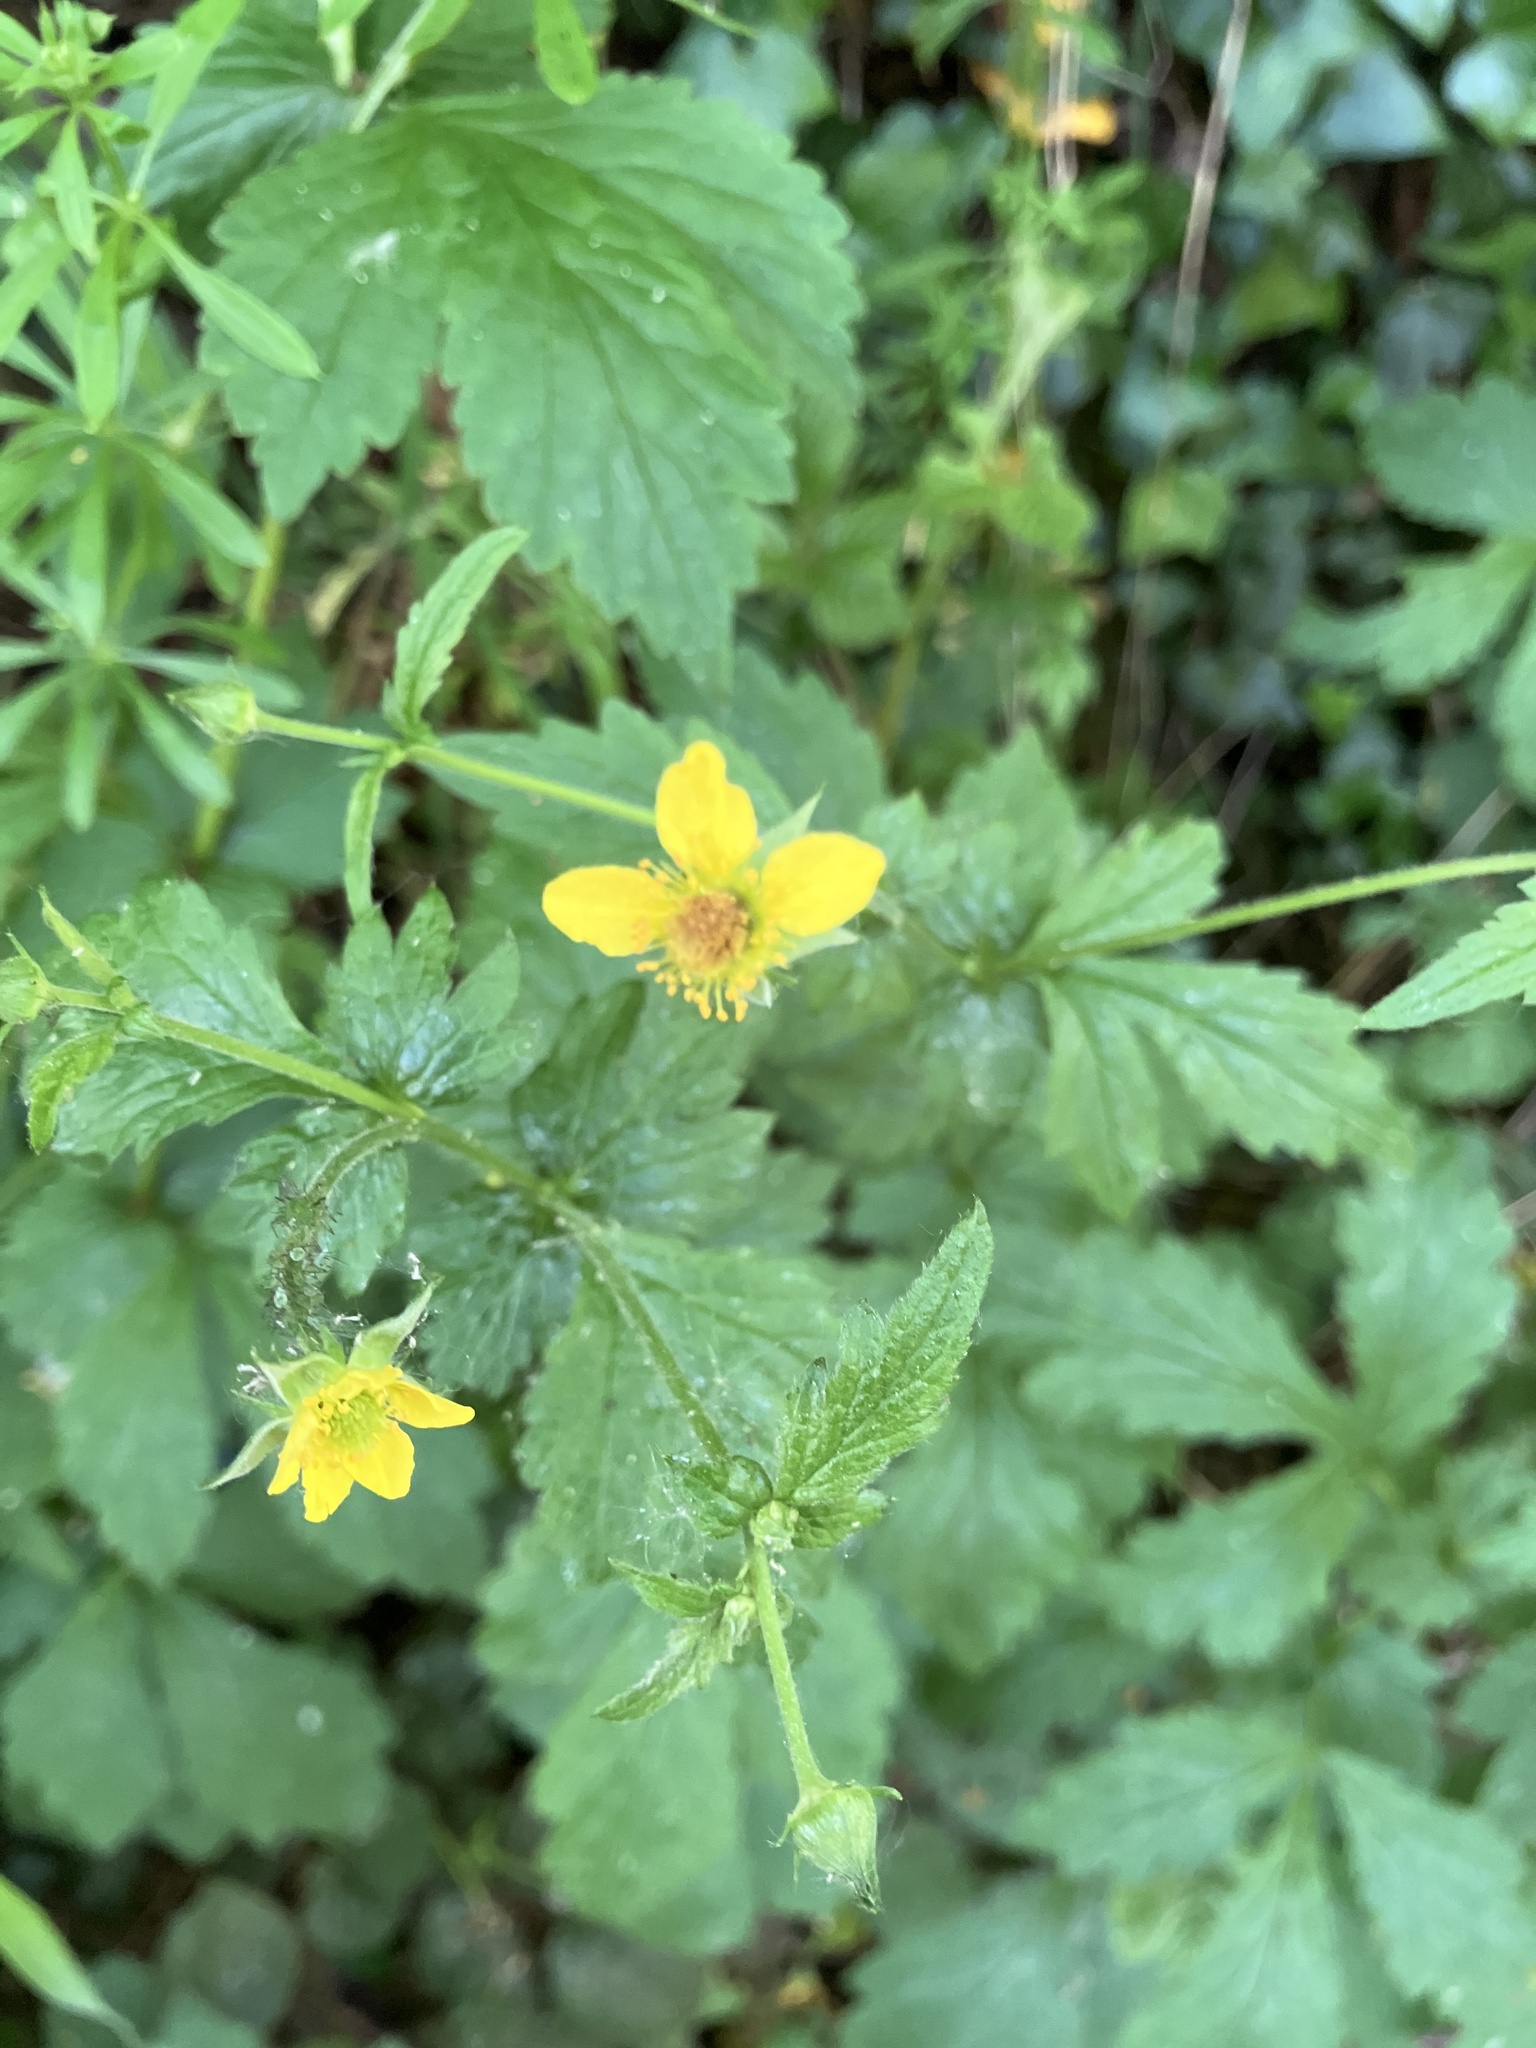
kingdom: Plantae
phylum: Tracheophyta
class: Magnoliopsida
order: Rosales
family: Rosaceae
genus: Geum
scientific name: Geum urbanum
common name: Wood avens
